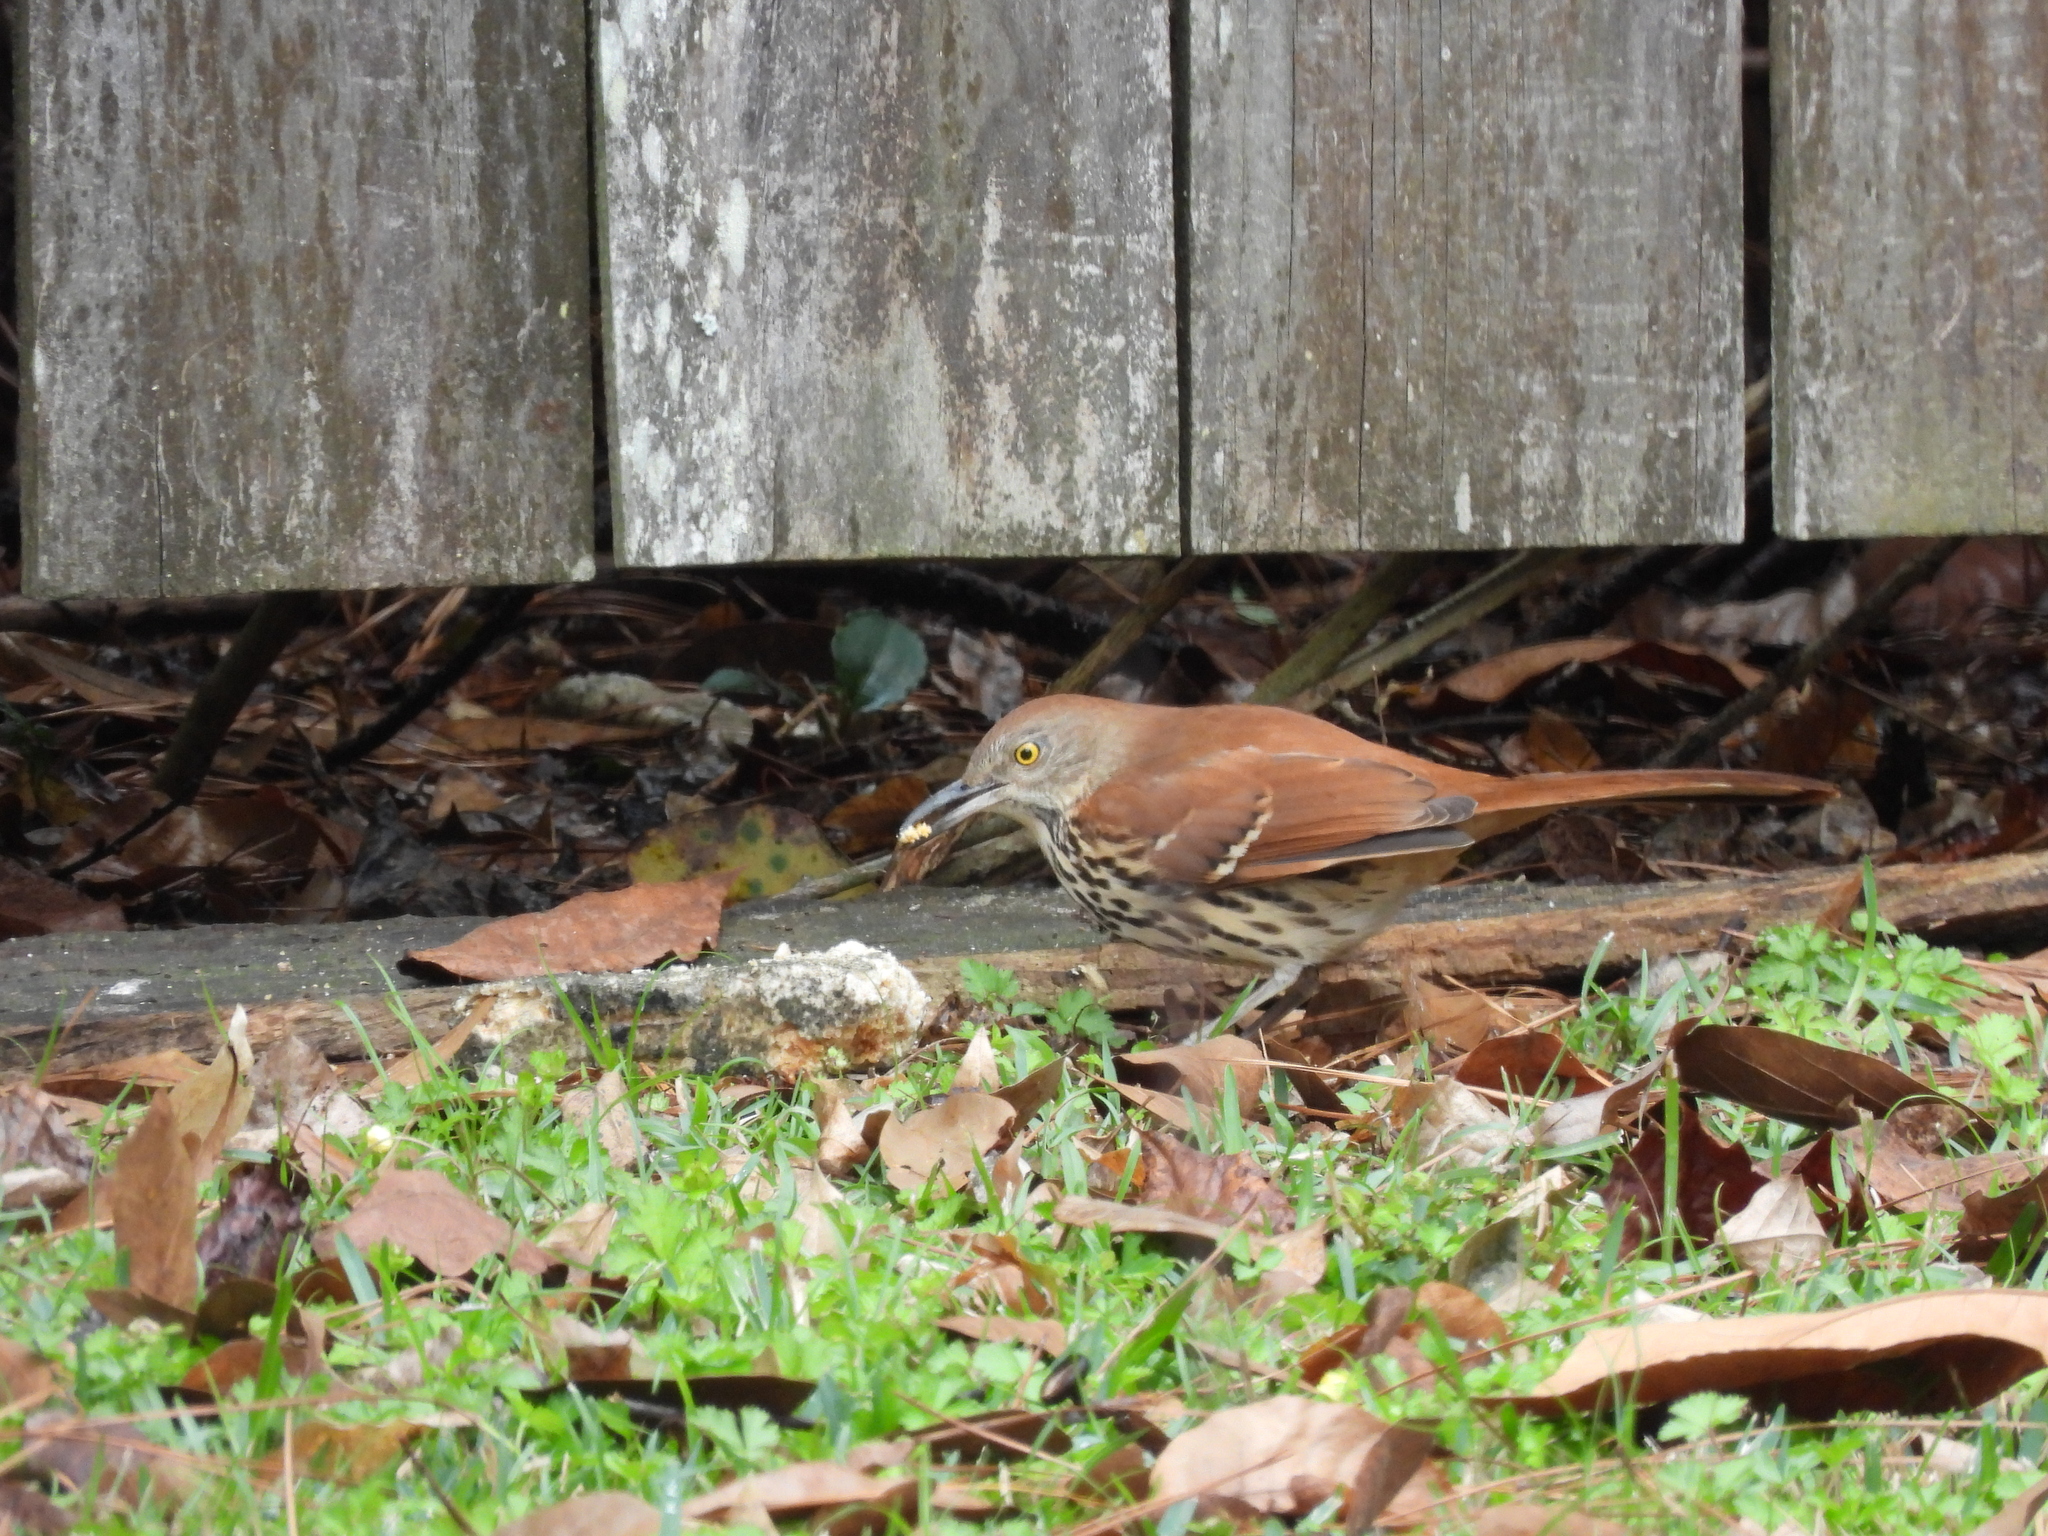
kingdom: Animalia
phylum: Chordata
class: Aves
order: Passeriformes
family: Mimidae
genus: Toxostoma
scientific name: Toxostoma rufum
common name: Brown thrasher
